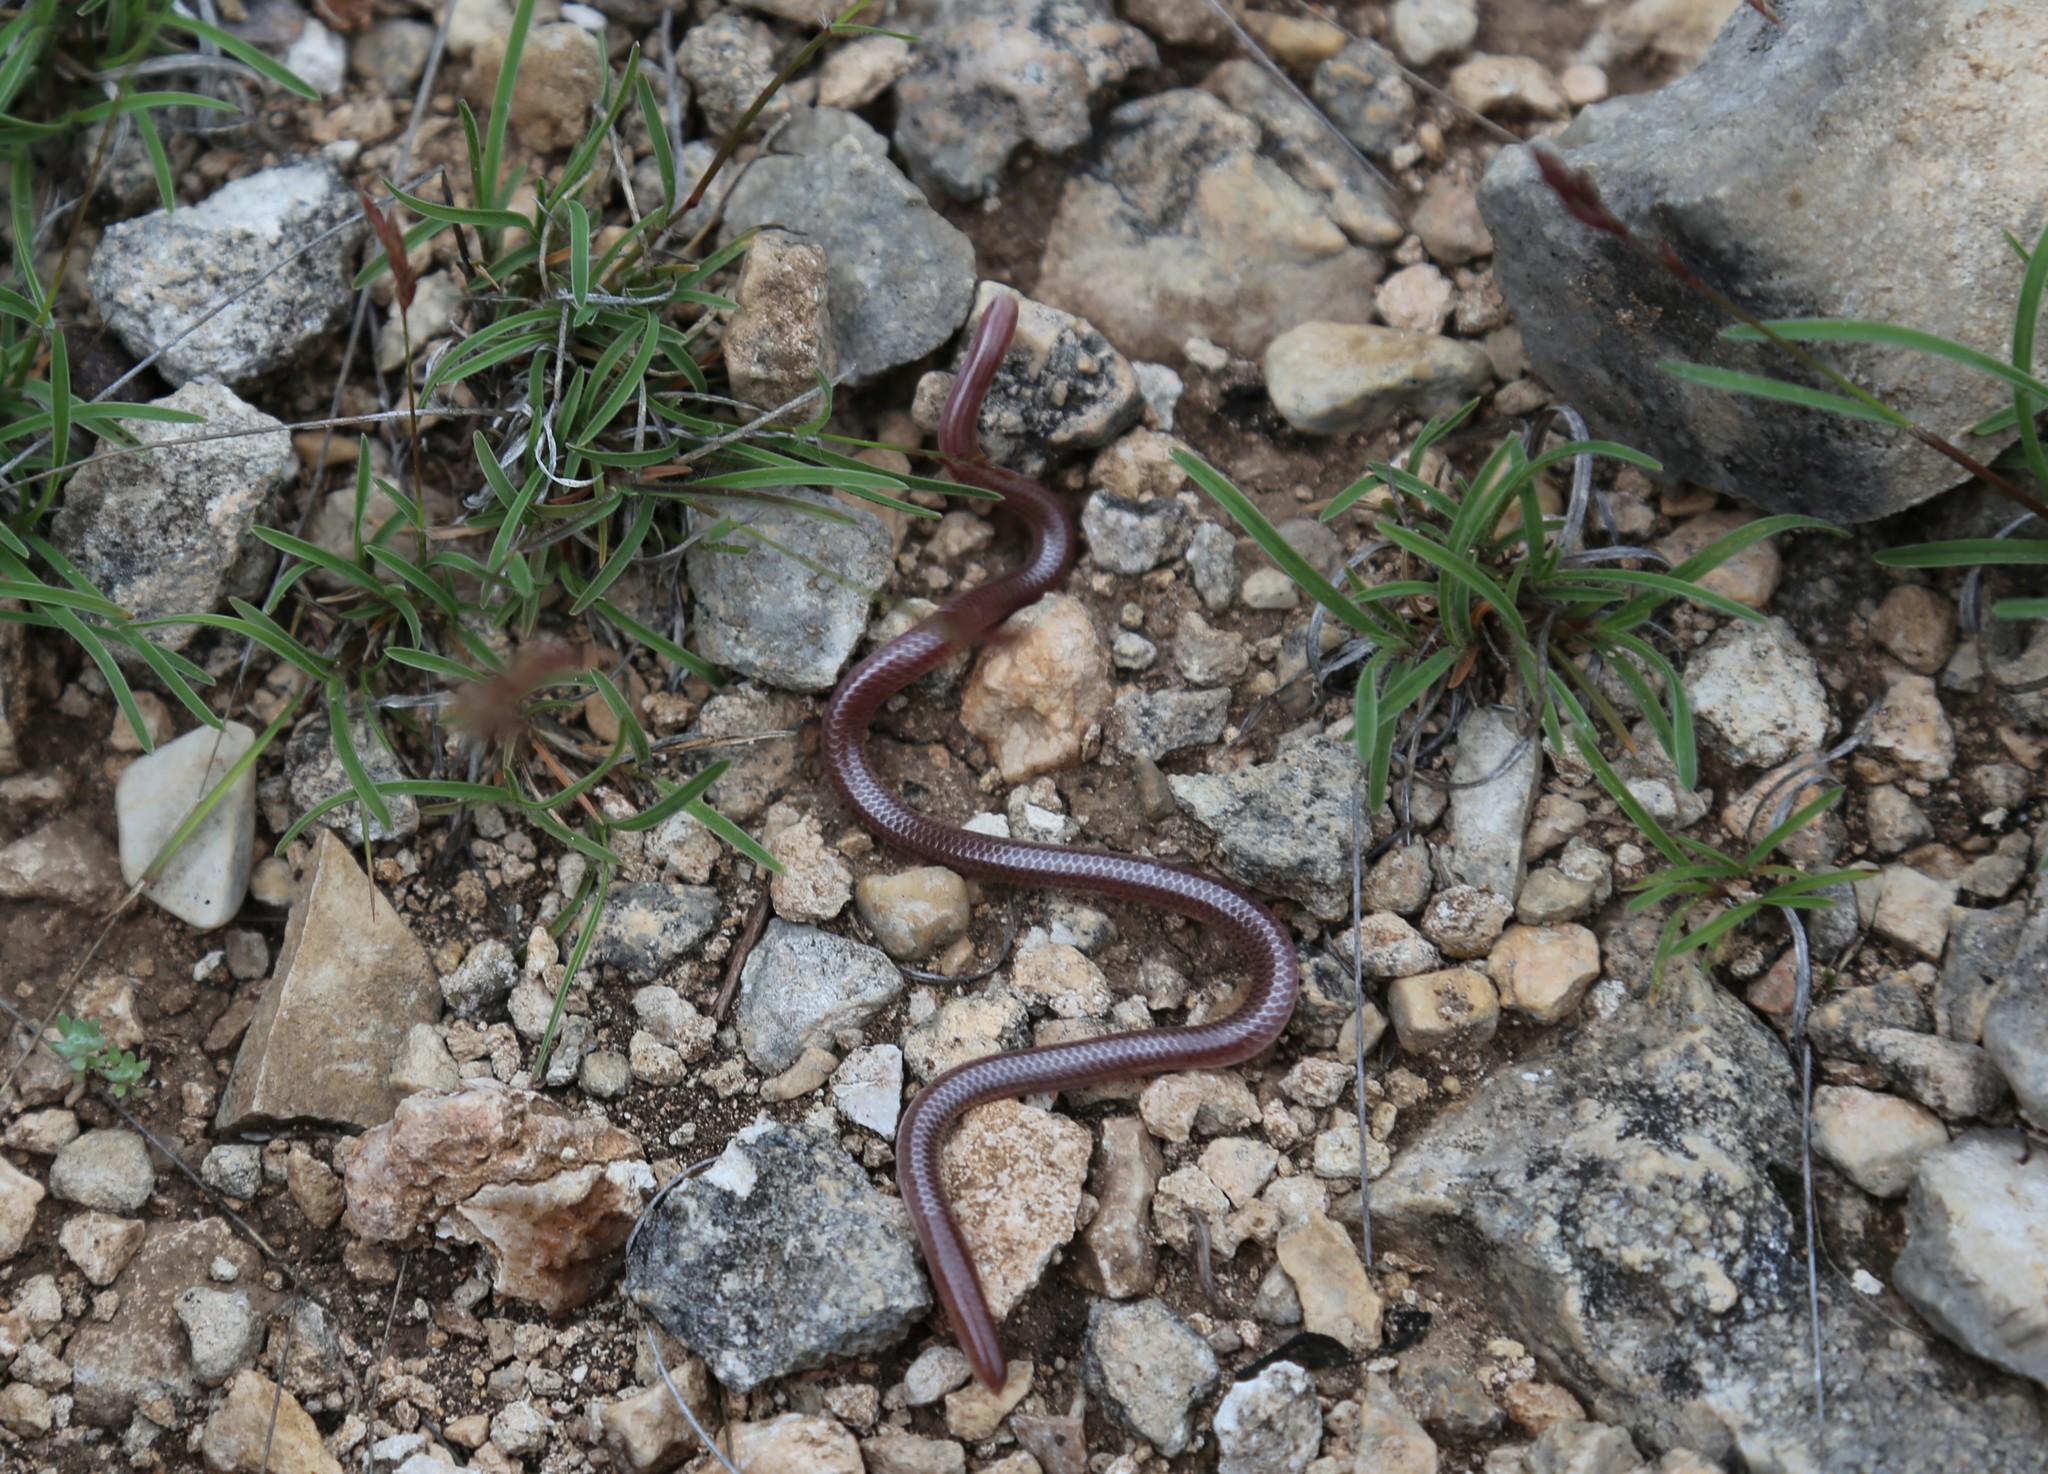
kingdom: Animalia
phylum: Chordata
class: Squamata
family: Leptotyphlopidae
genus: Rena
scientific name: Rena dulcis
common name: Texas blind snake
